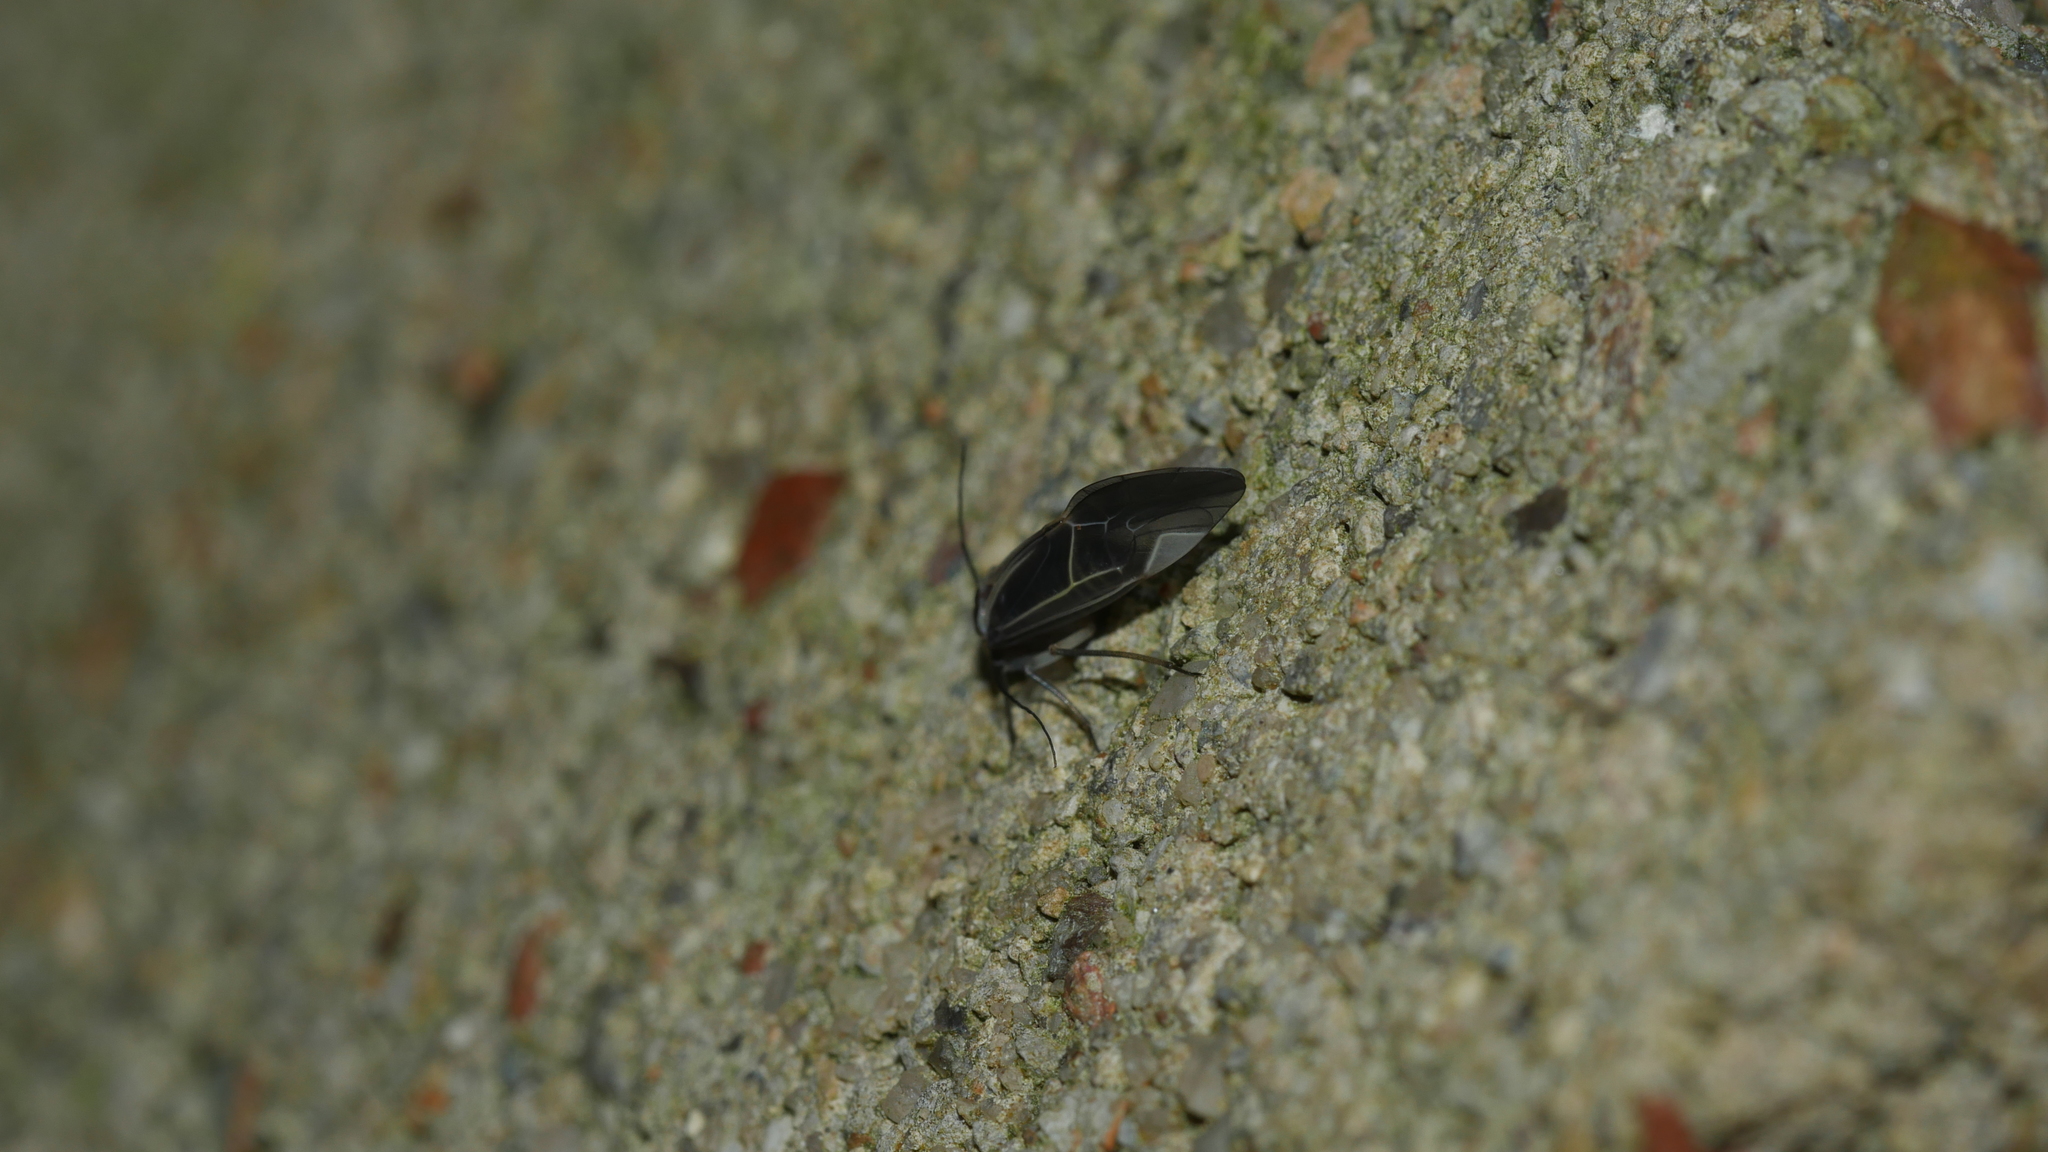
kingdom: Animalia
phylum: Arthropoda
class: Insecta
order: Psocodea
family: Psocidae
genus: Cerastipsocus
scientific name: Cerastipsocus venosus
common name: Tree cattle
